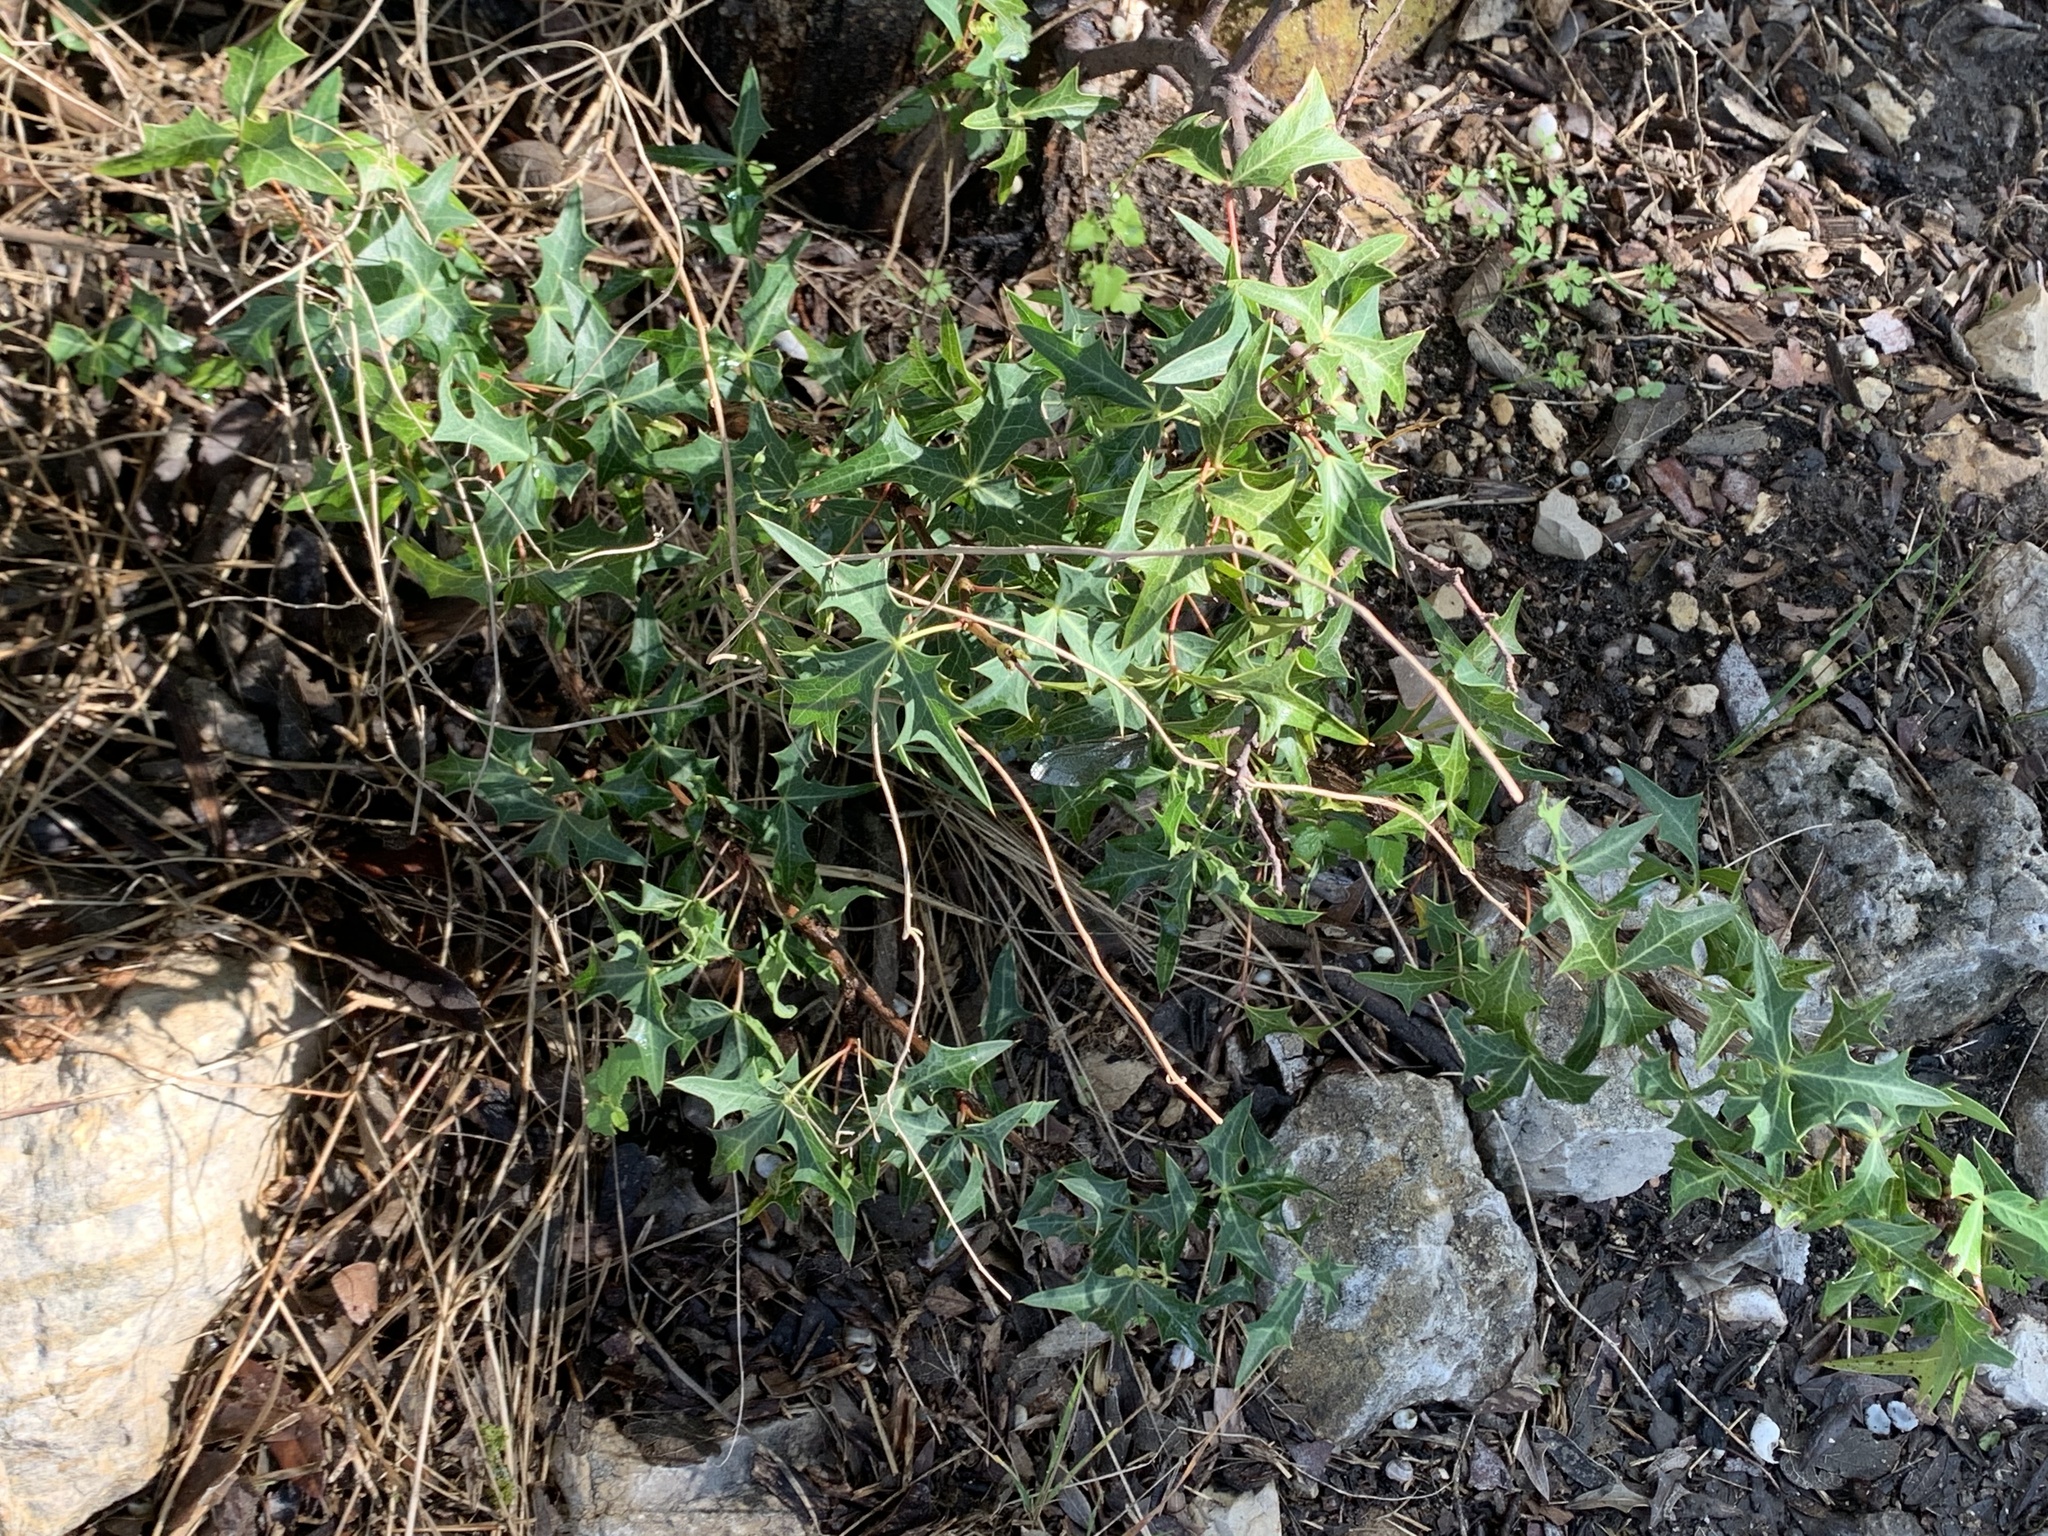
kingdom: Plantae
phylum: Tracheophyta
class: Magnoliopsida
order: Ranunculales
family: Berberidaceae
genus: Alloberberis
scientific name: Alloberberis trifoliolata
